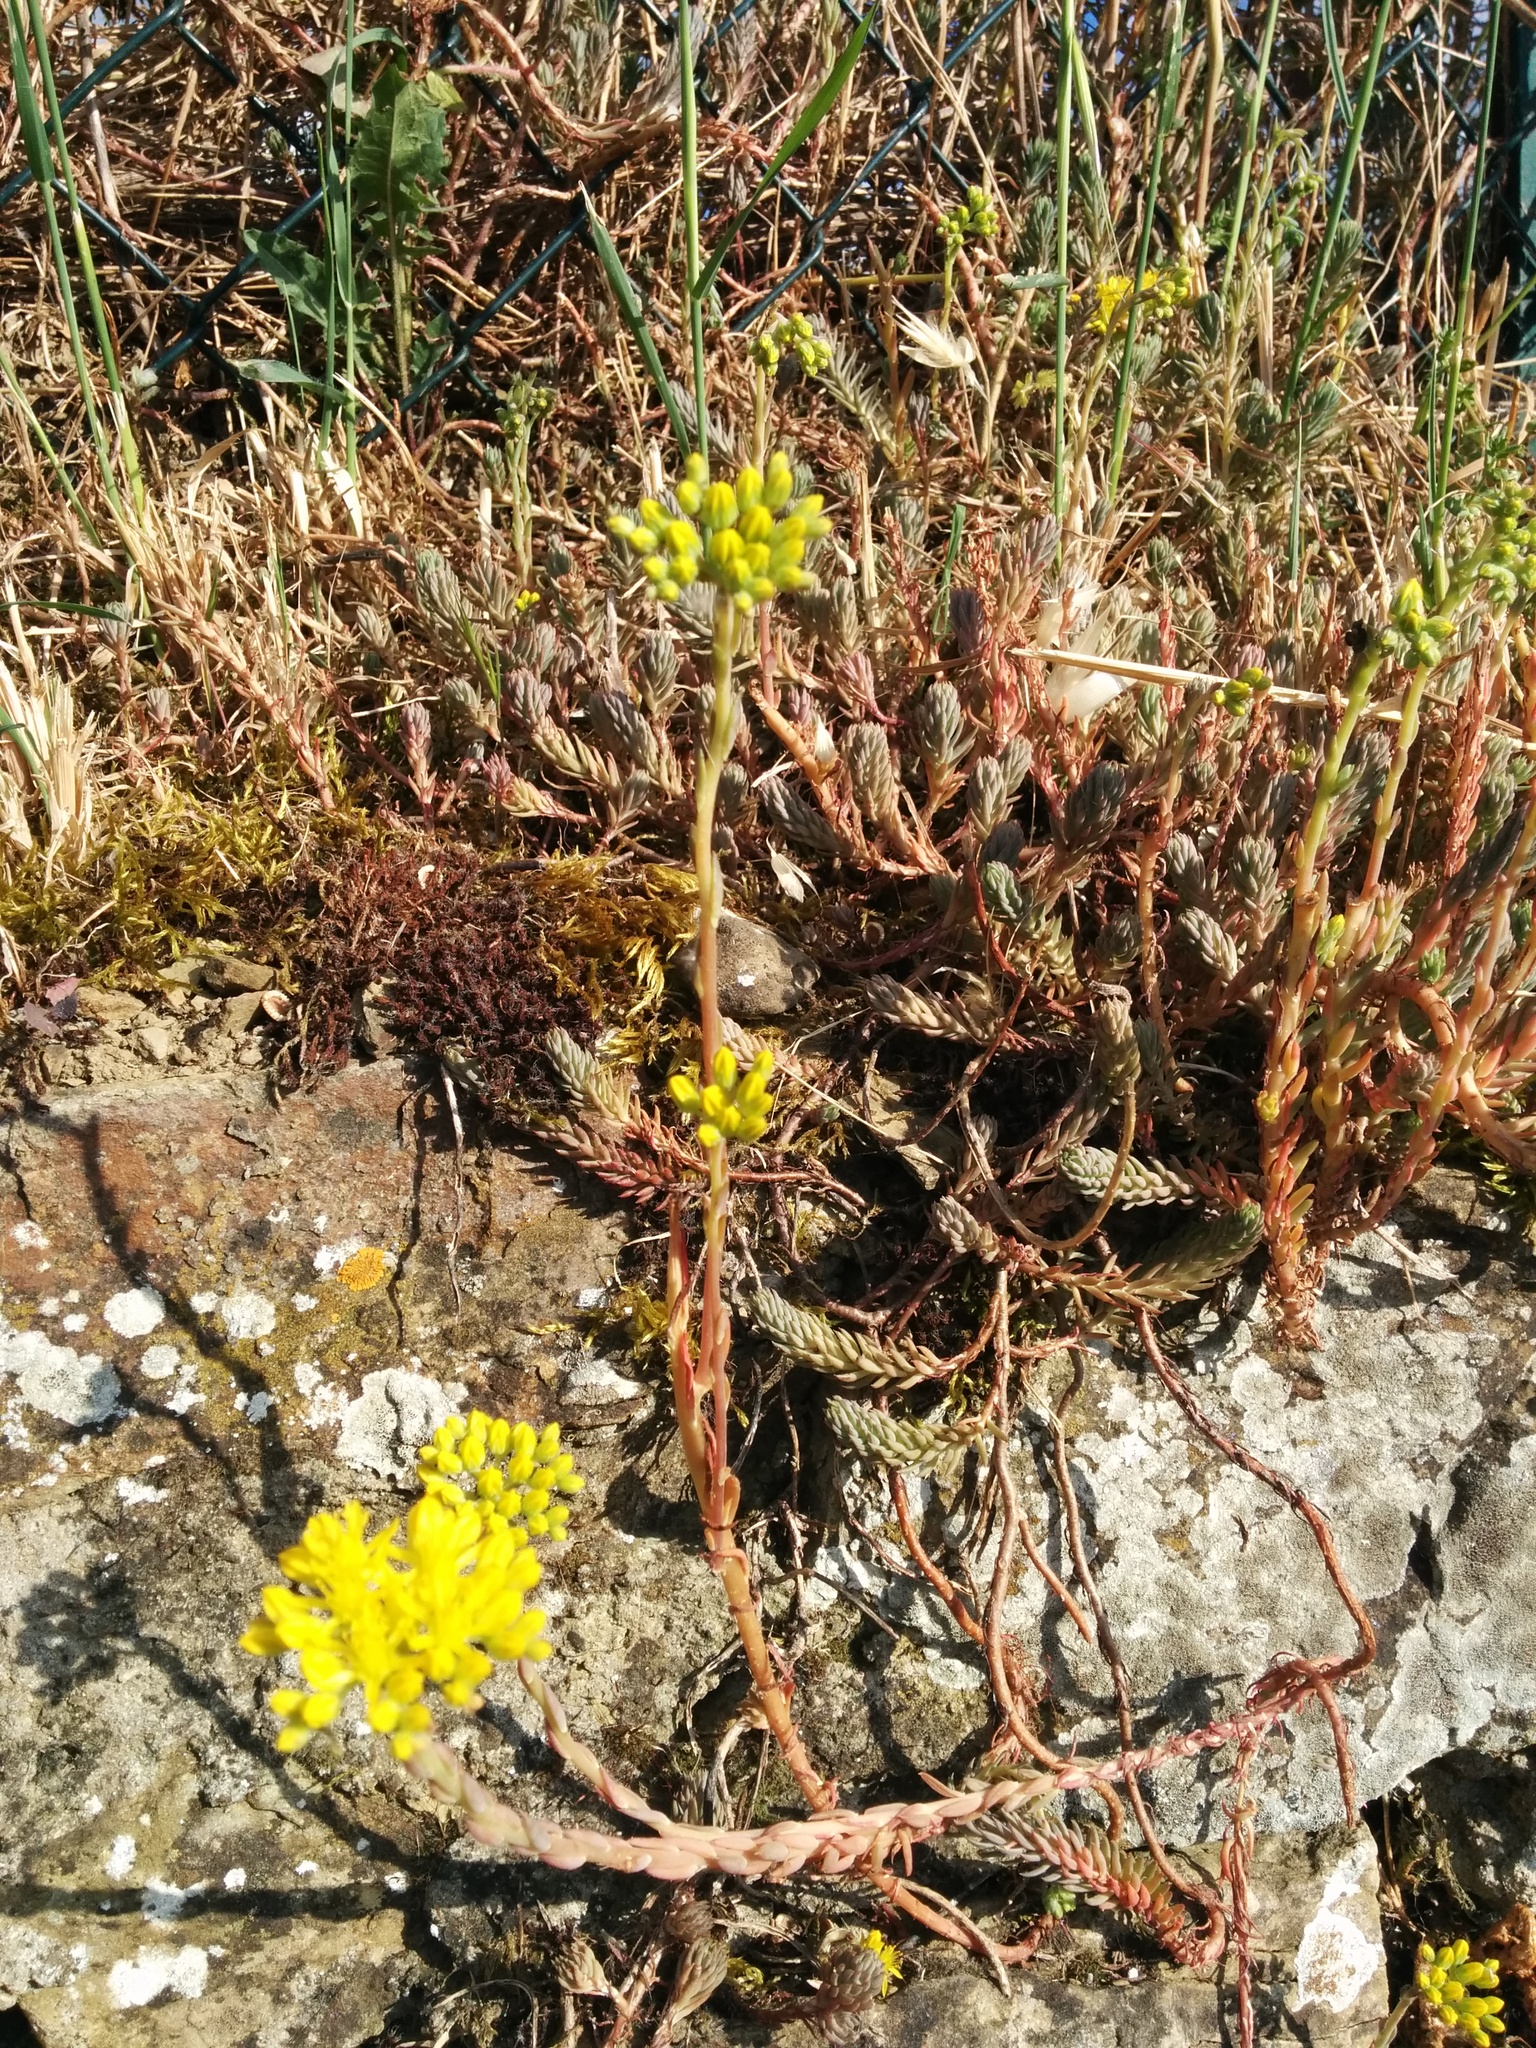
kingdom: Plantae
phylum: Tracheophyta
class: Magnoliopsida
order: Saxifragales
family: Crassulaceae
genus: Petrosedum
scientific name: Petrosedum rupestre
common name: Jenny's stonecrop
